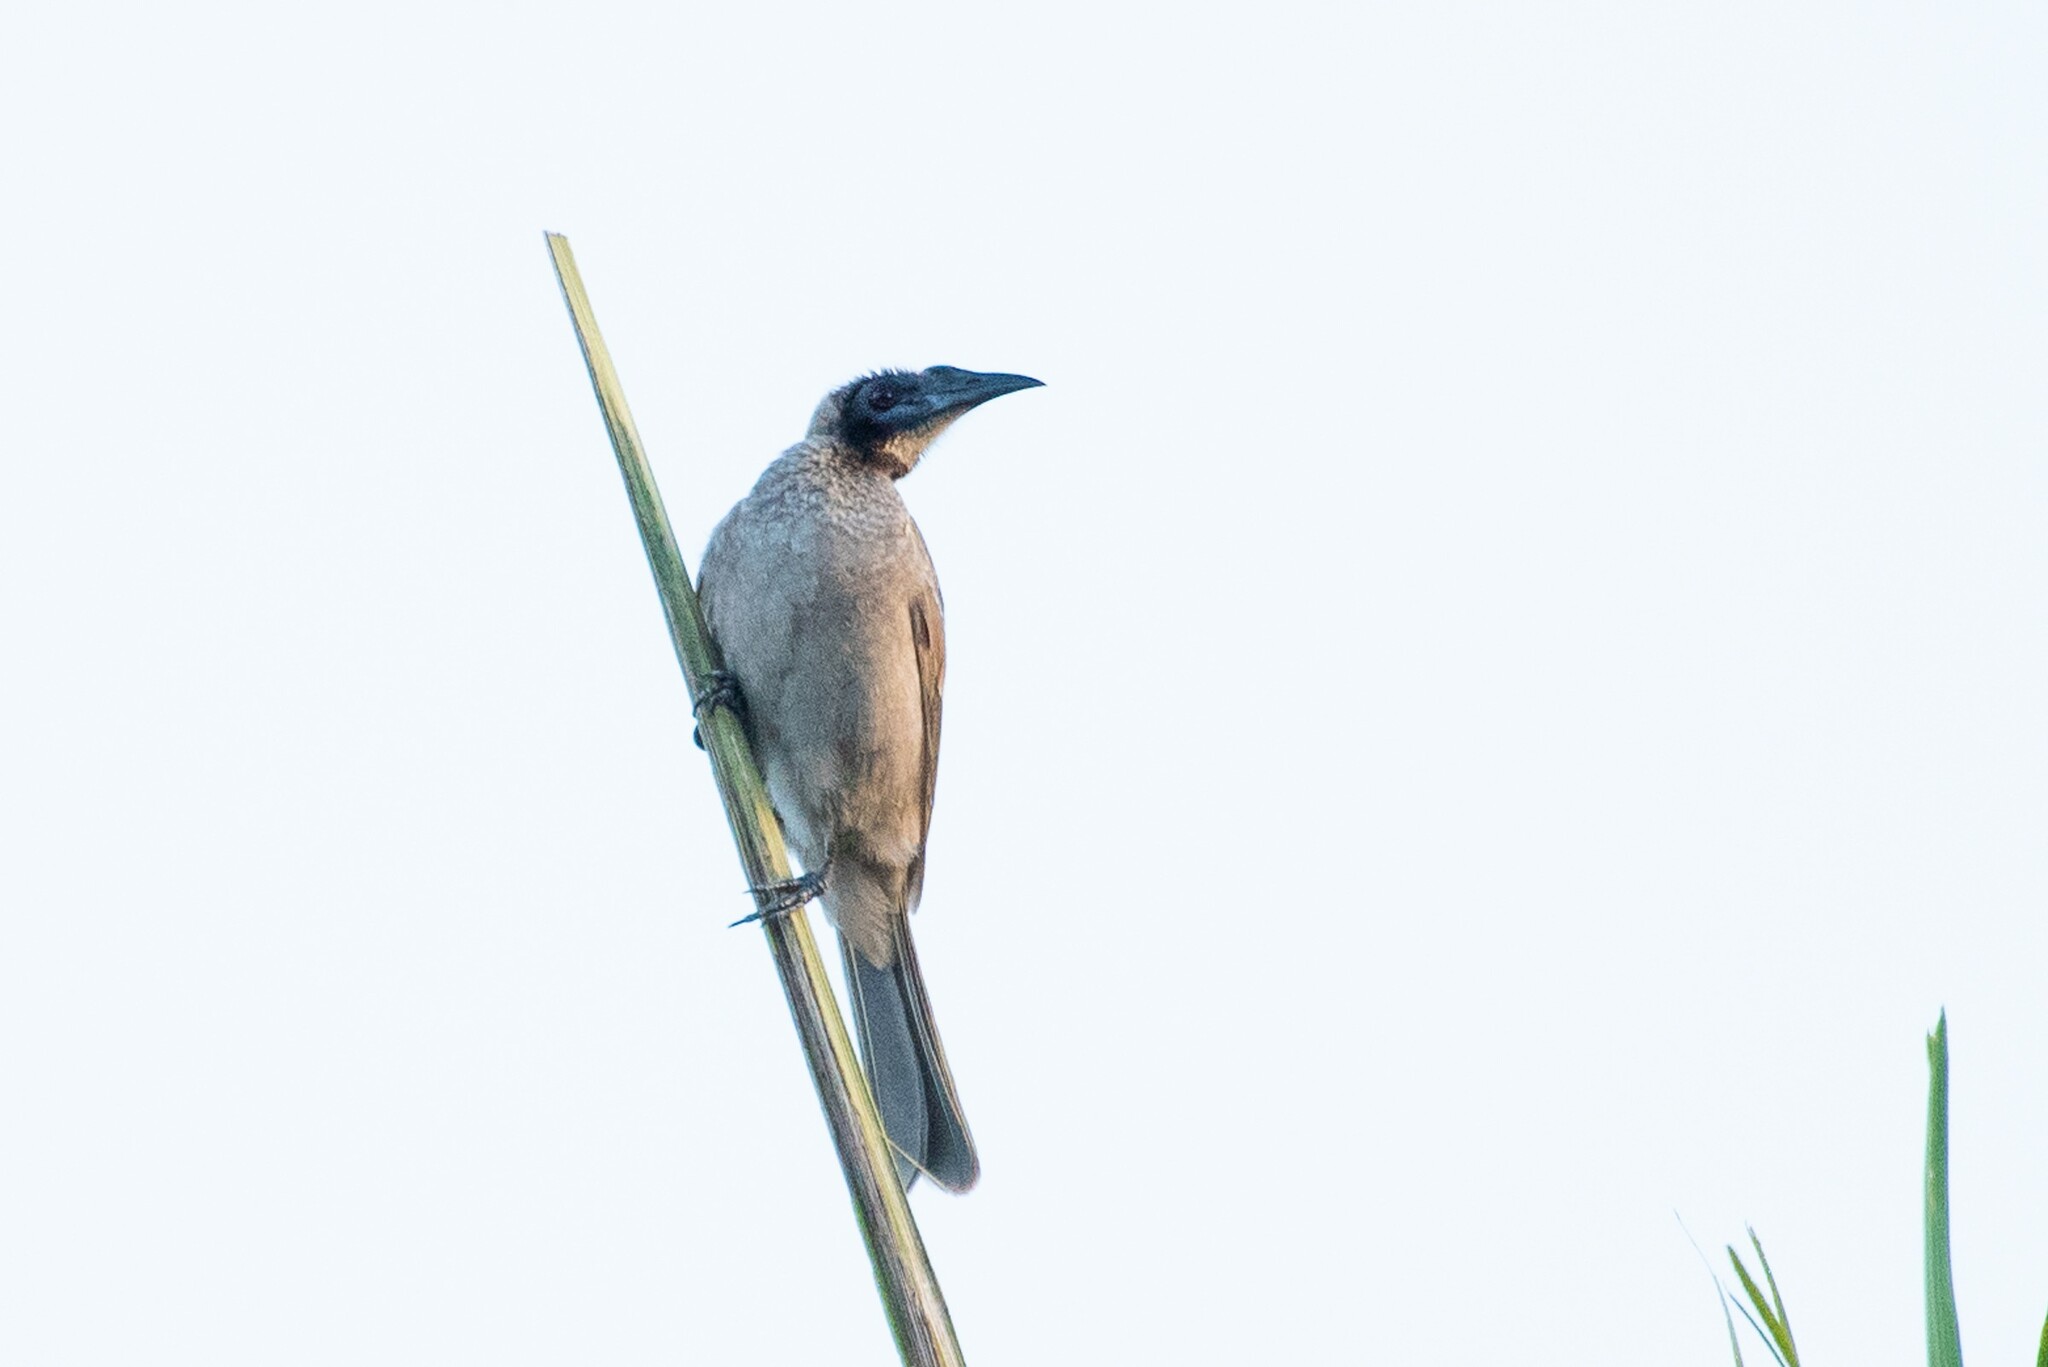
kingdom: Animalia
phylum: Chordata
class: Aves
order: Passeriformes
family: Meliphagidae
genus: Philemon
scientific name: Philemon buceroides
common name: Helmeted friarbird
